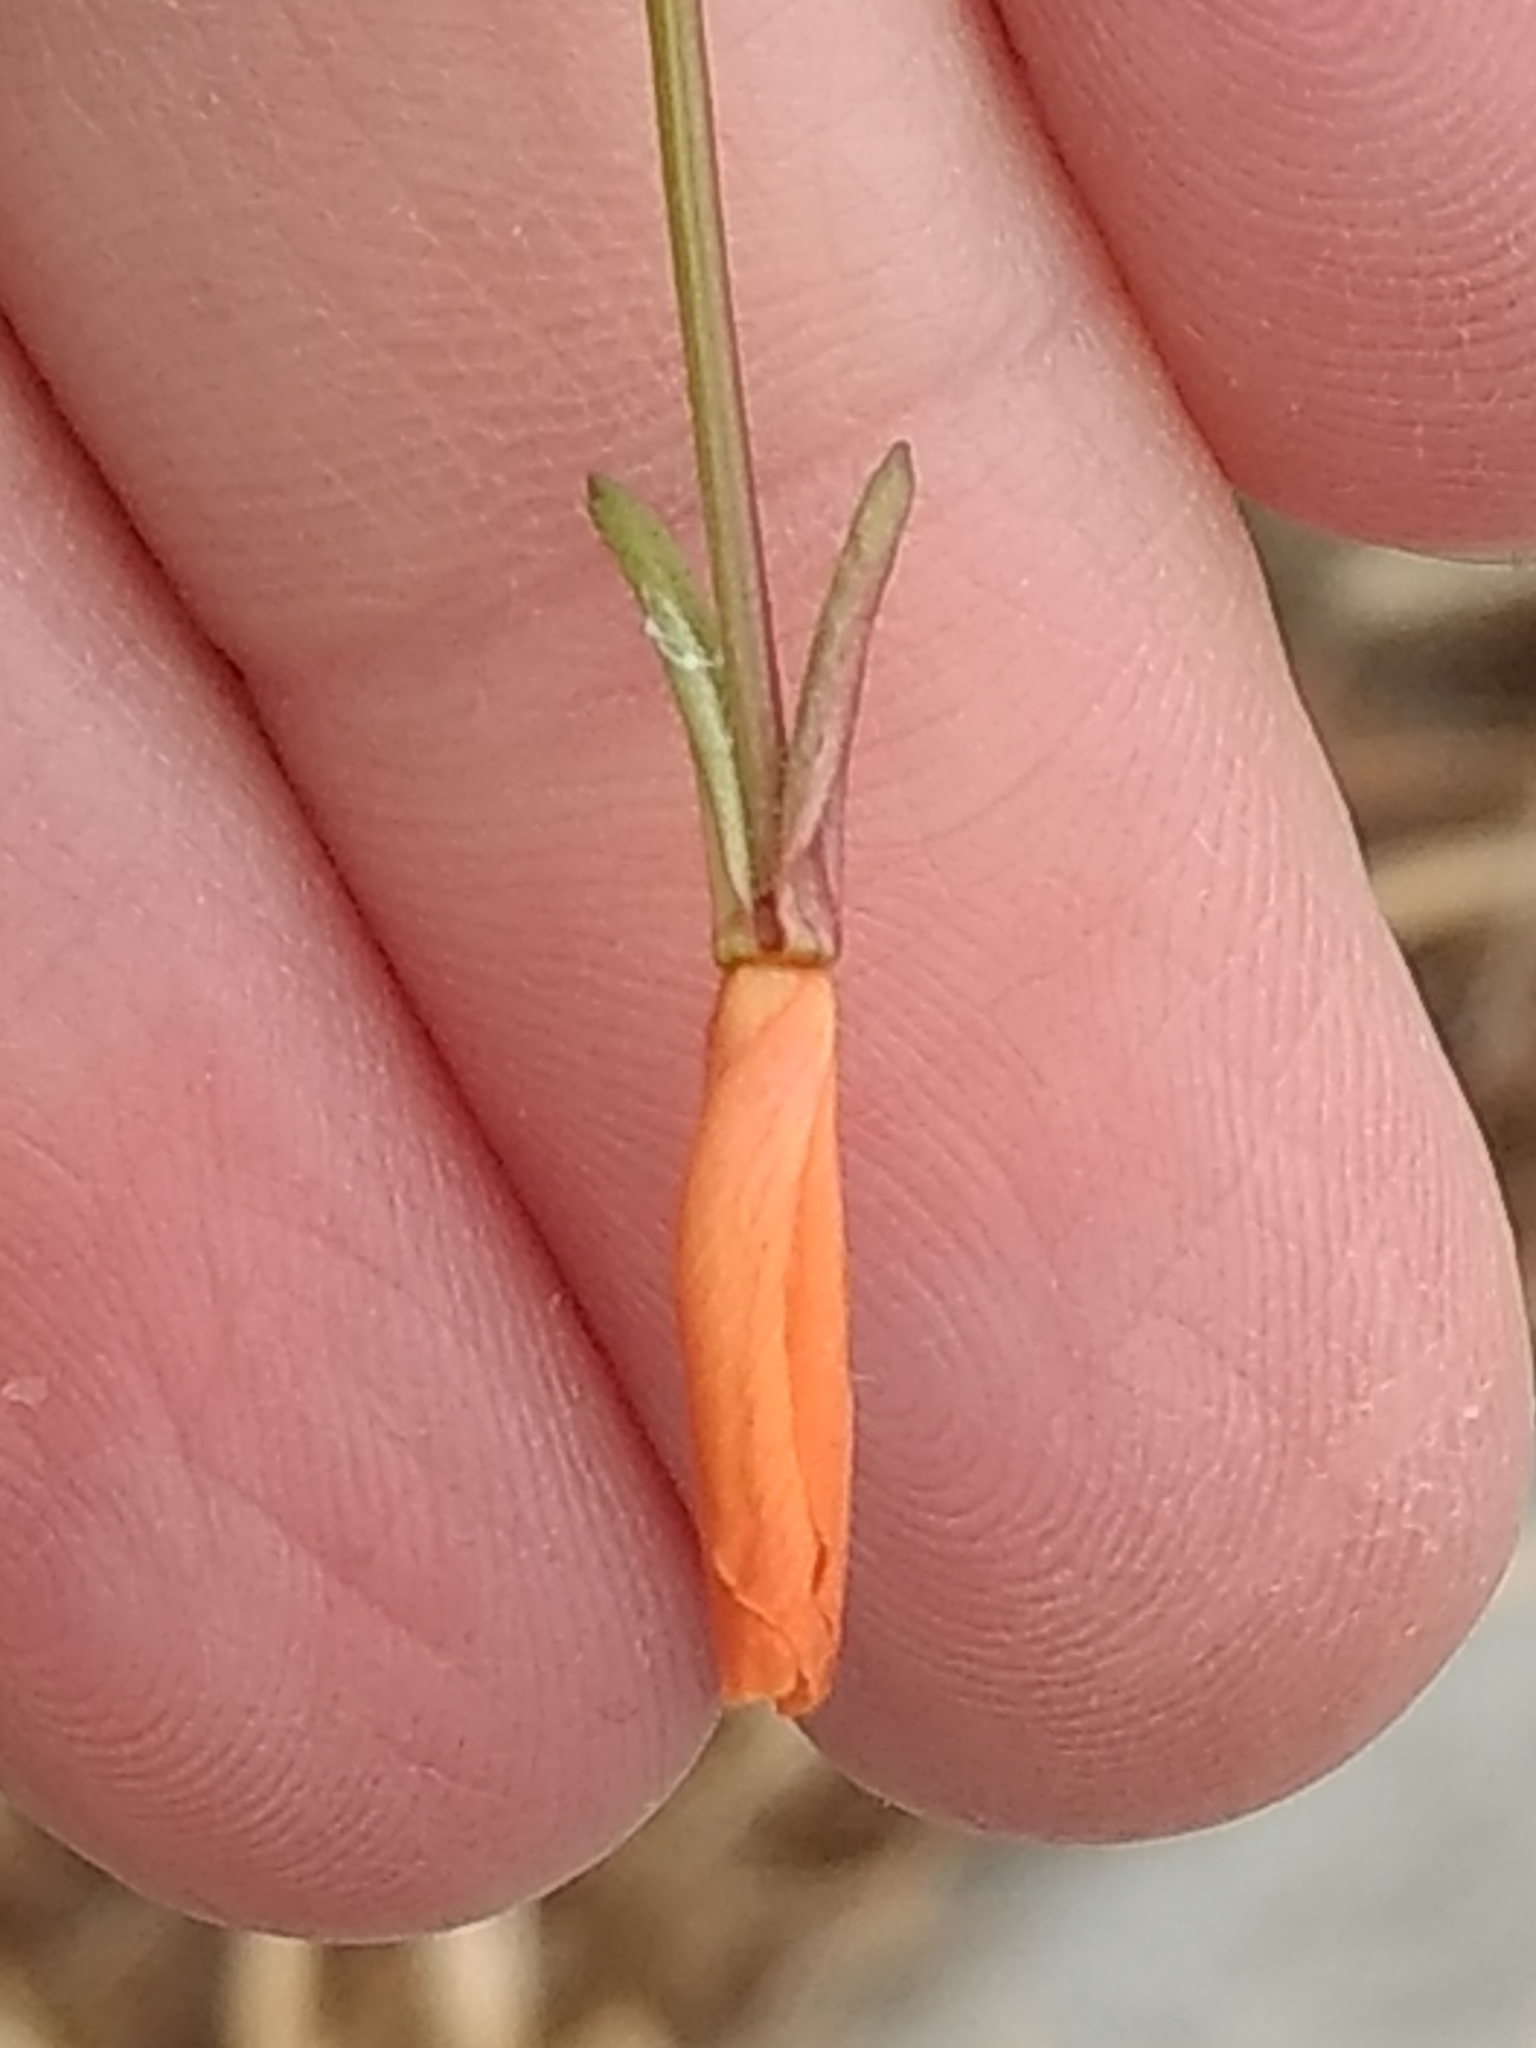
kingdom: Plantae
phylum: Tracheophyta
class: Magnoliopsida
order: Myrtales
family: Onagraceae
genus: Eulobus
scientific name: Eulobus californicus
